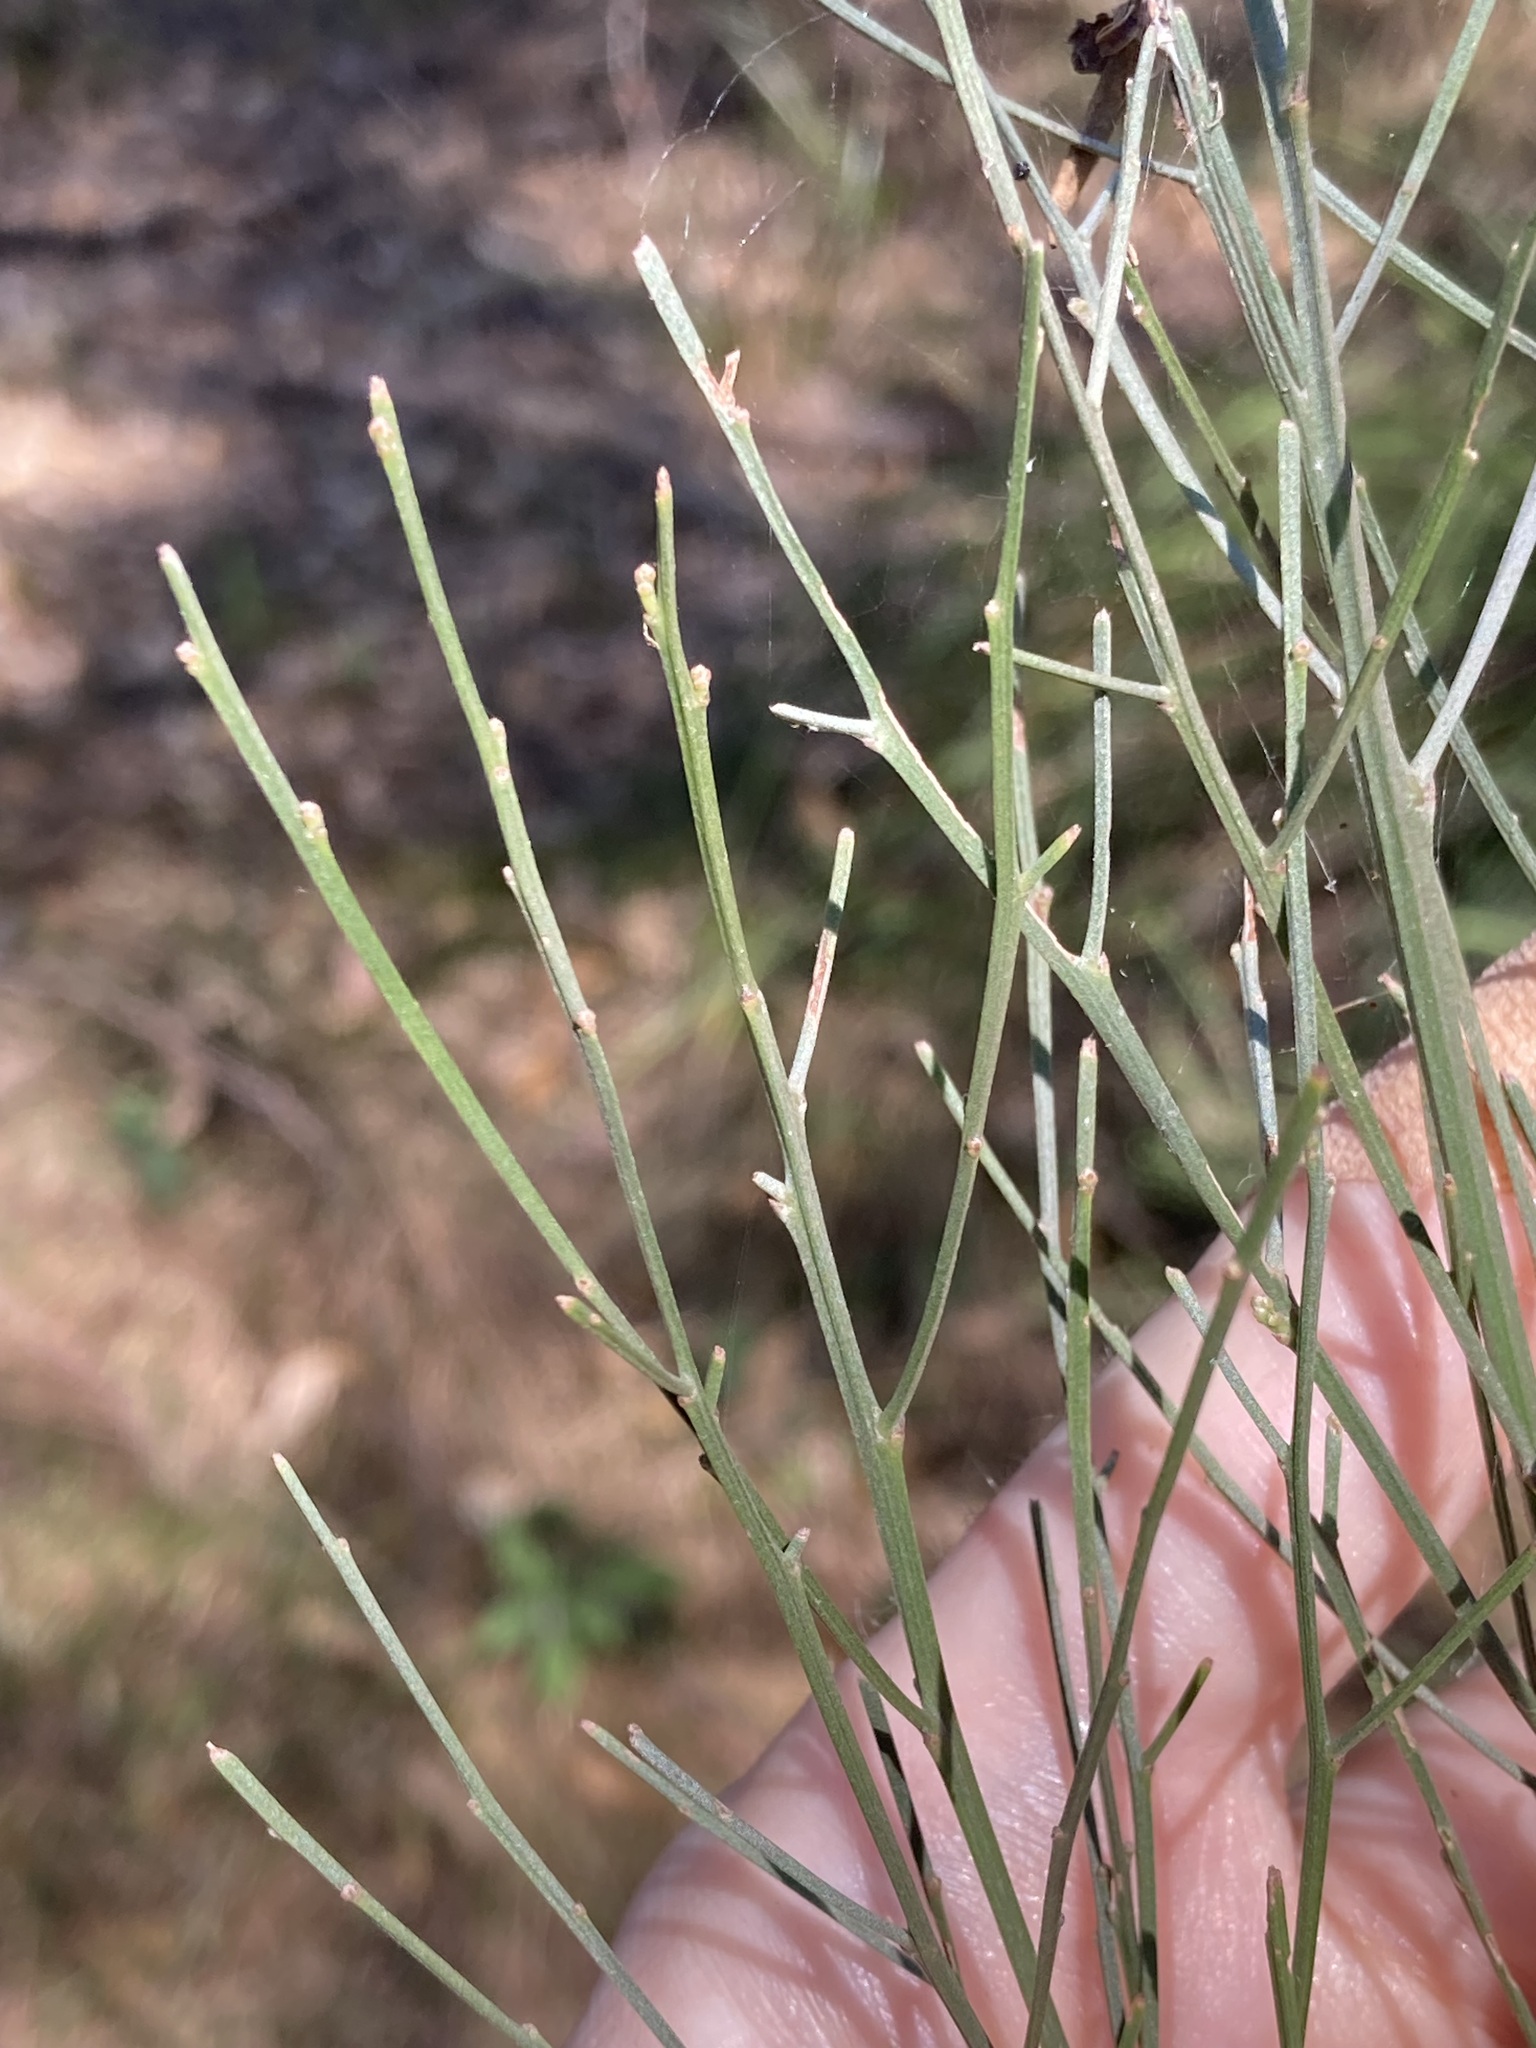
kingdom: Plantae
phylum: Tracheophyta
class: Magnoliopsida
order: Fabales
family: Fabaceae
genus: Jacksonia
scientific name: Jacksonia scoparia
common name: Dogwood
